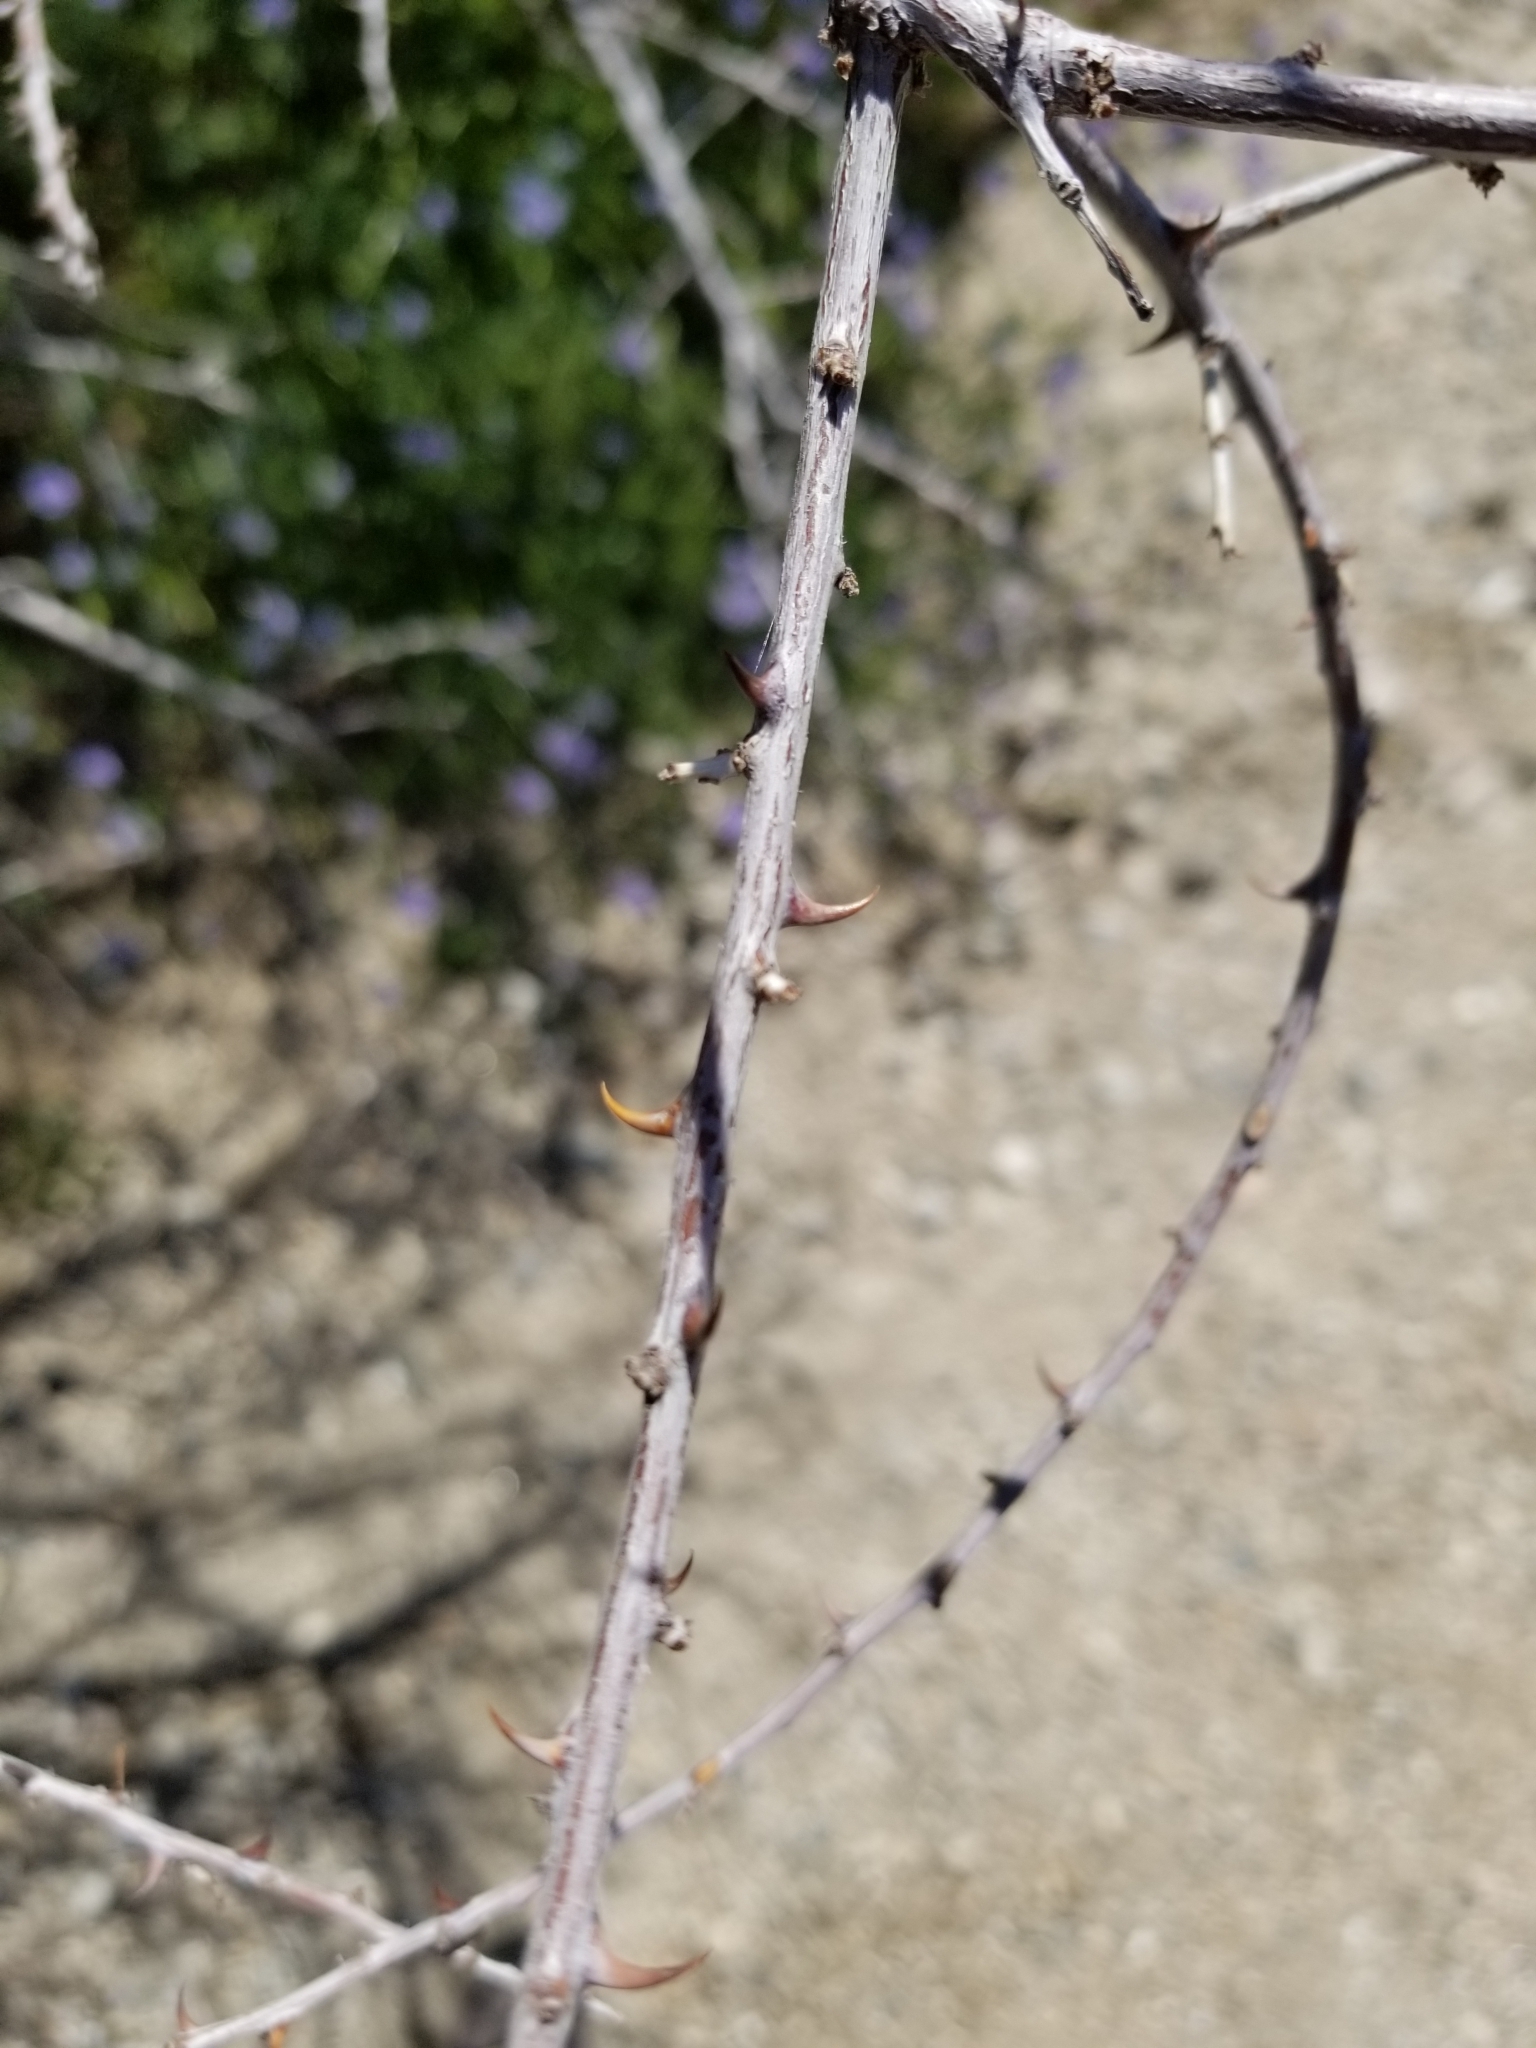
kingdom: Plantae
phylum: Tracheophyta
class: Magnoliopsida
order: Fabales
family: Fabaceae
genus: Senegalia
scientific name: Senegalia greggii
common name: Texas-mimosa
